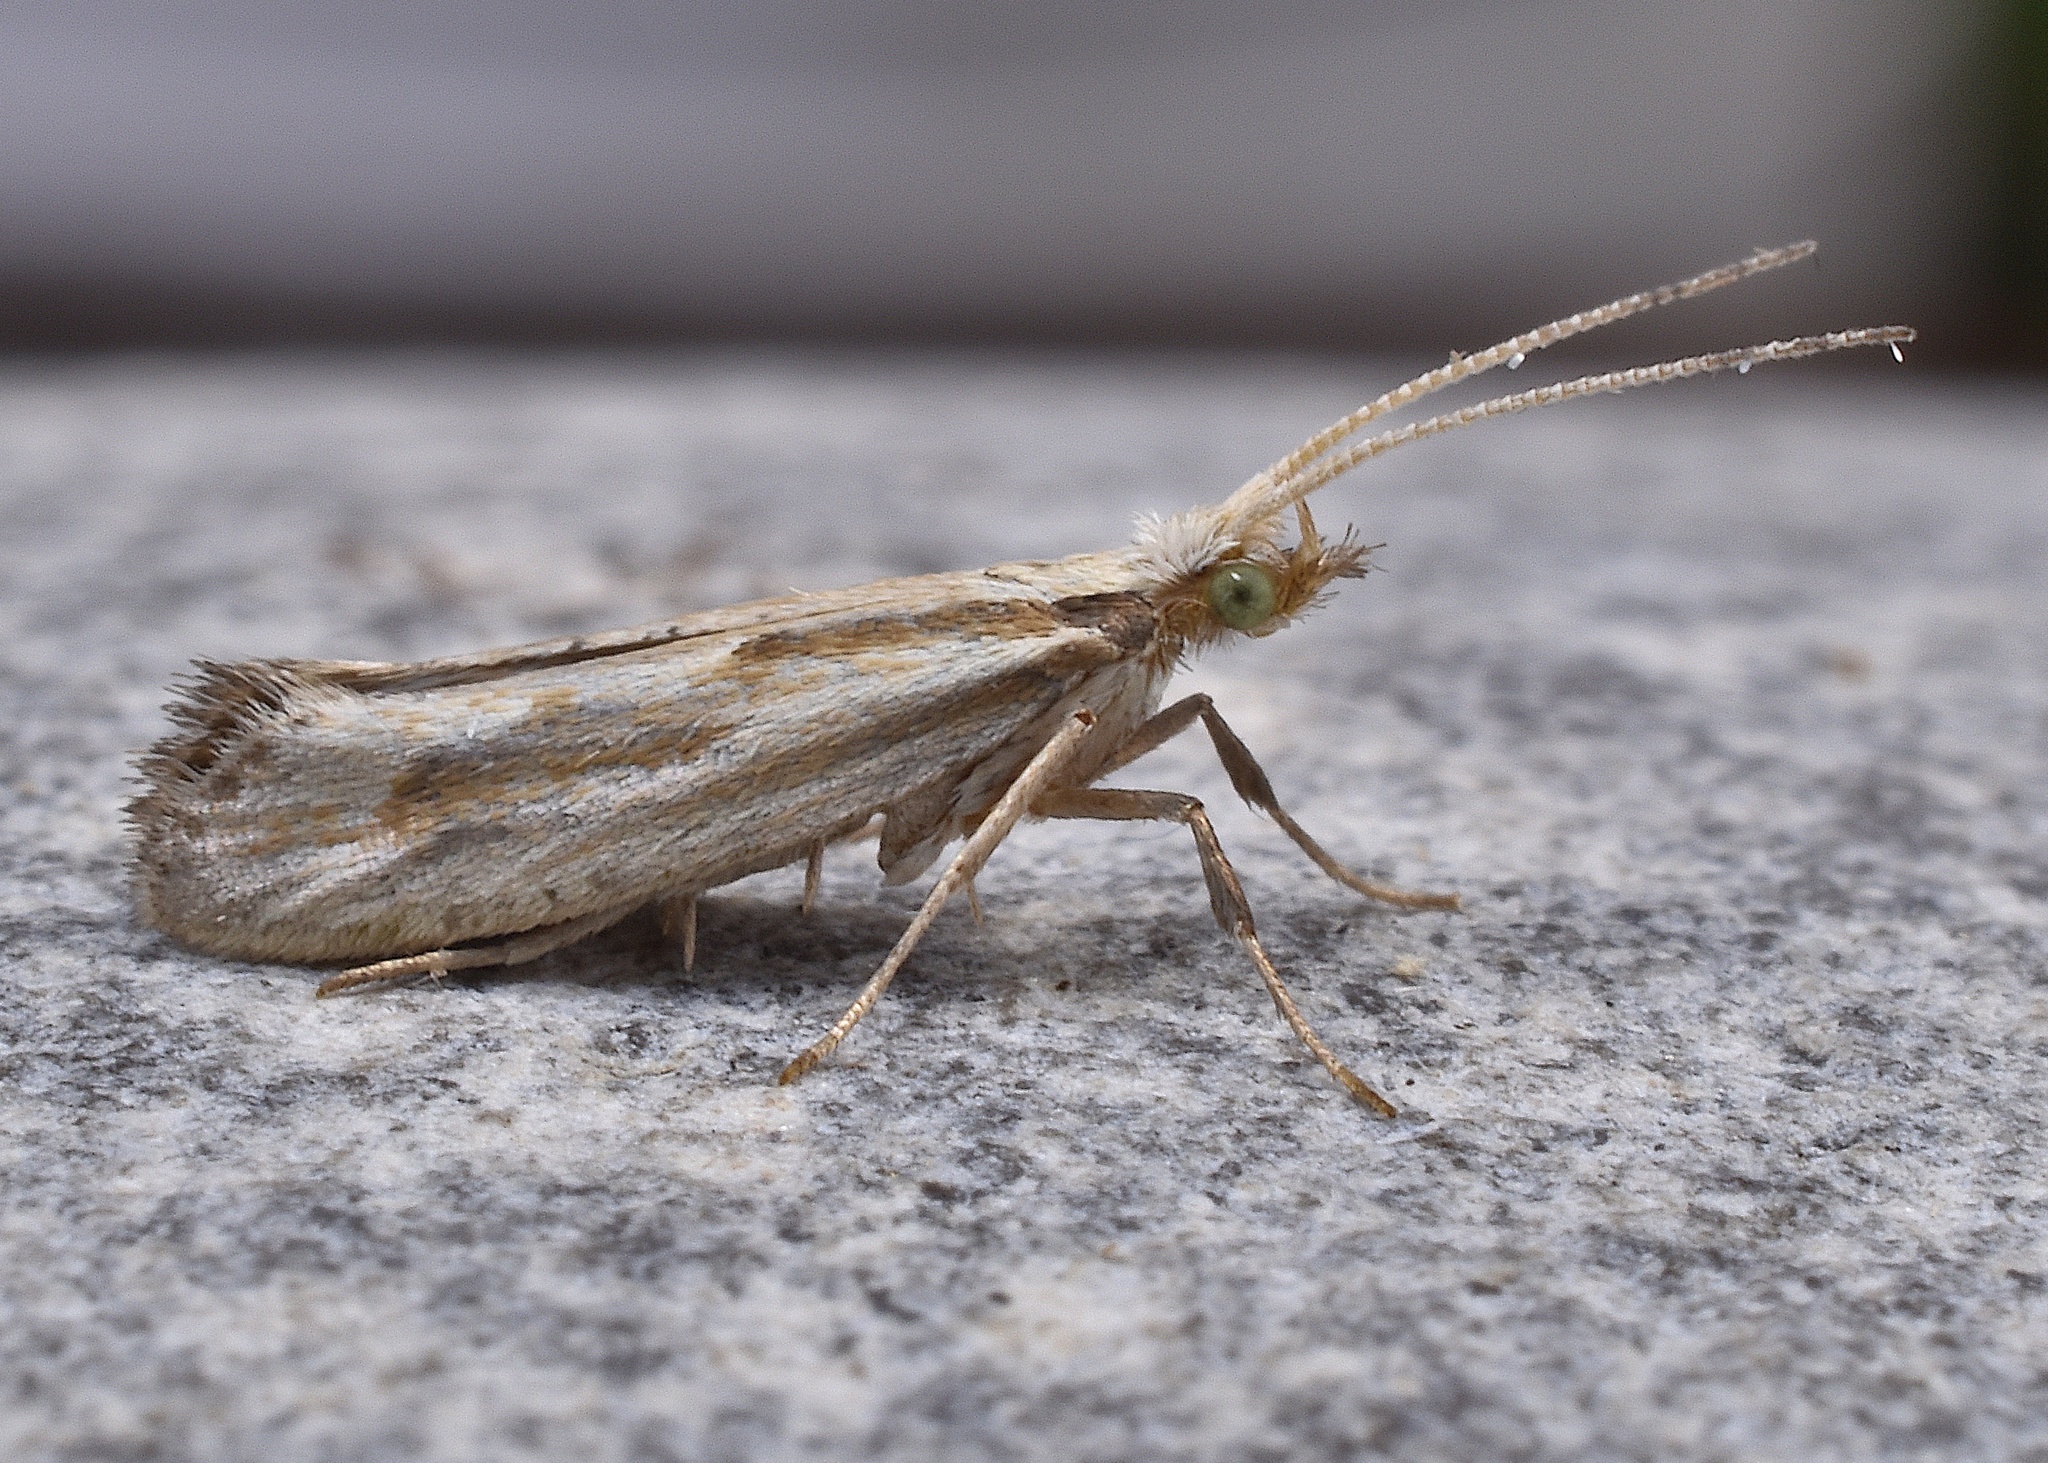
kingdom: Animalia
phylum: Arthropoda
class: Insecta
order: Lepidoptera
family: Plutellidae
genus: Plutella
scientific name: Plutella porrectella
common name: Dame's rocket moth
